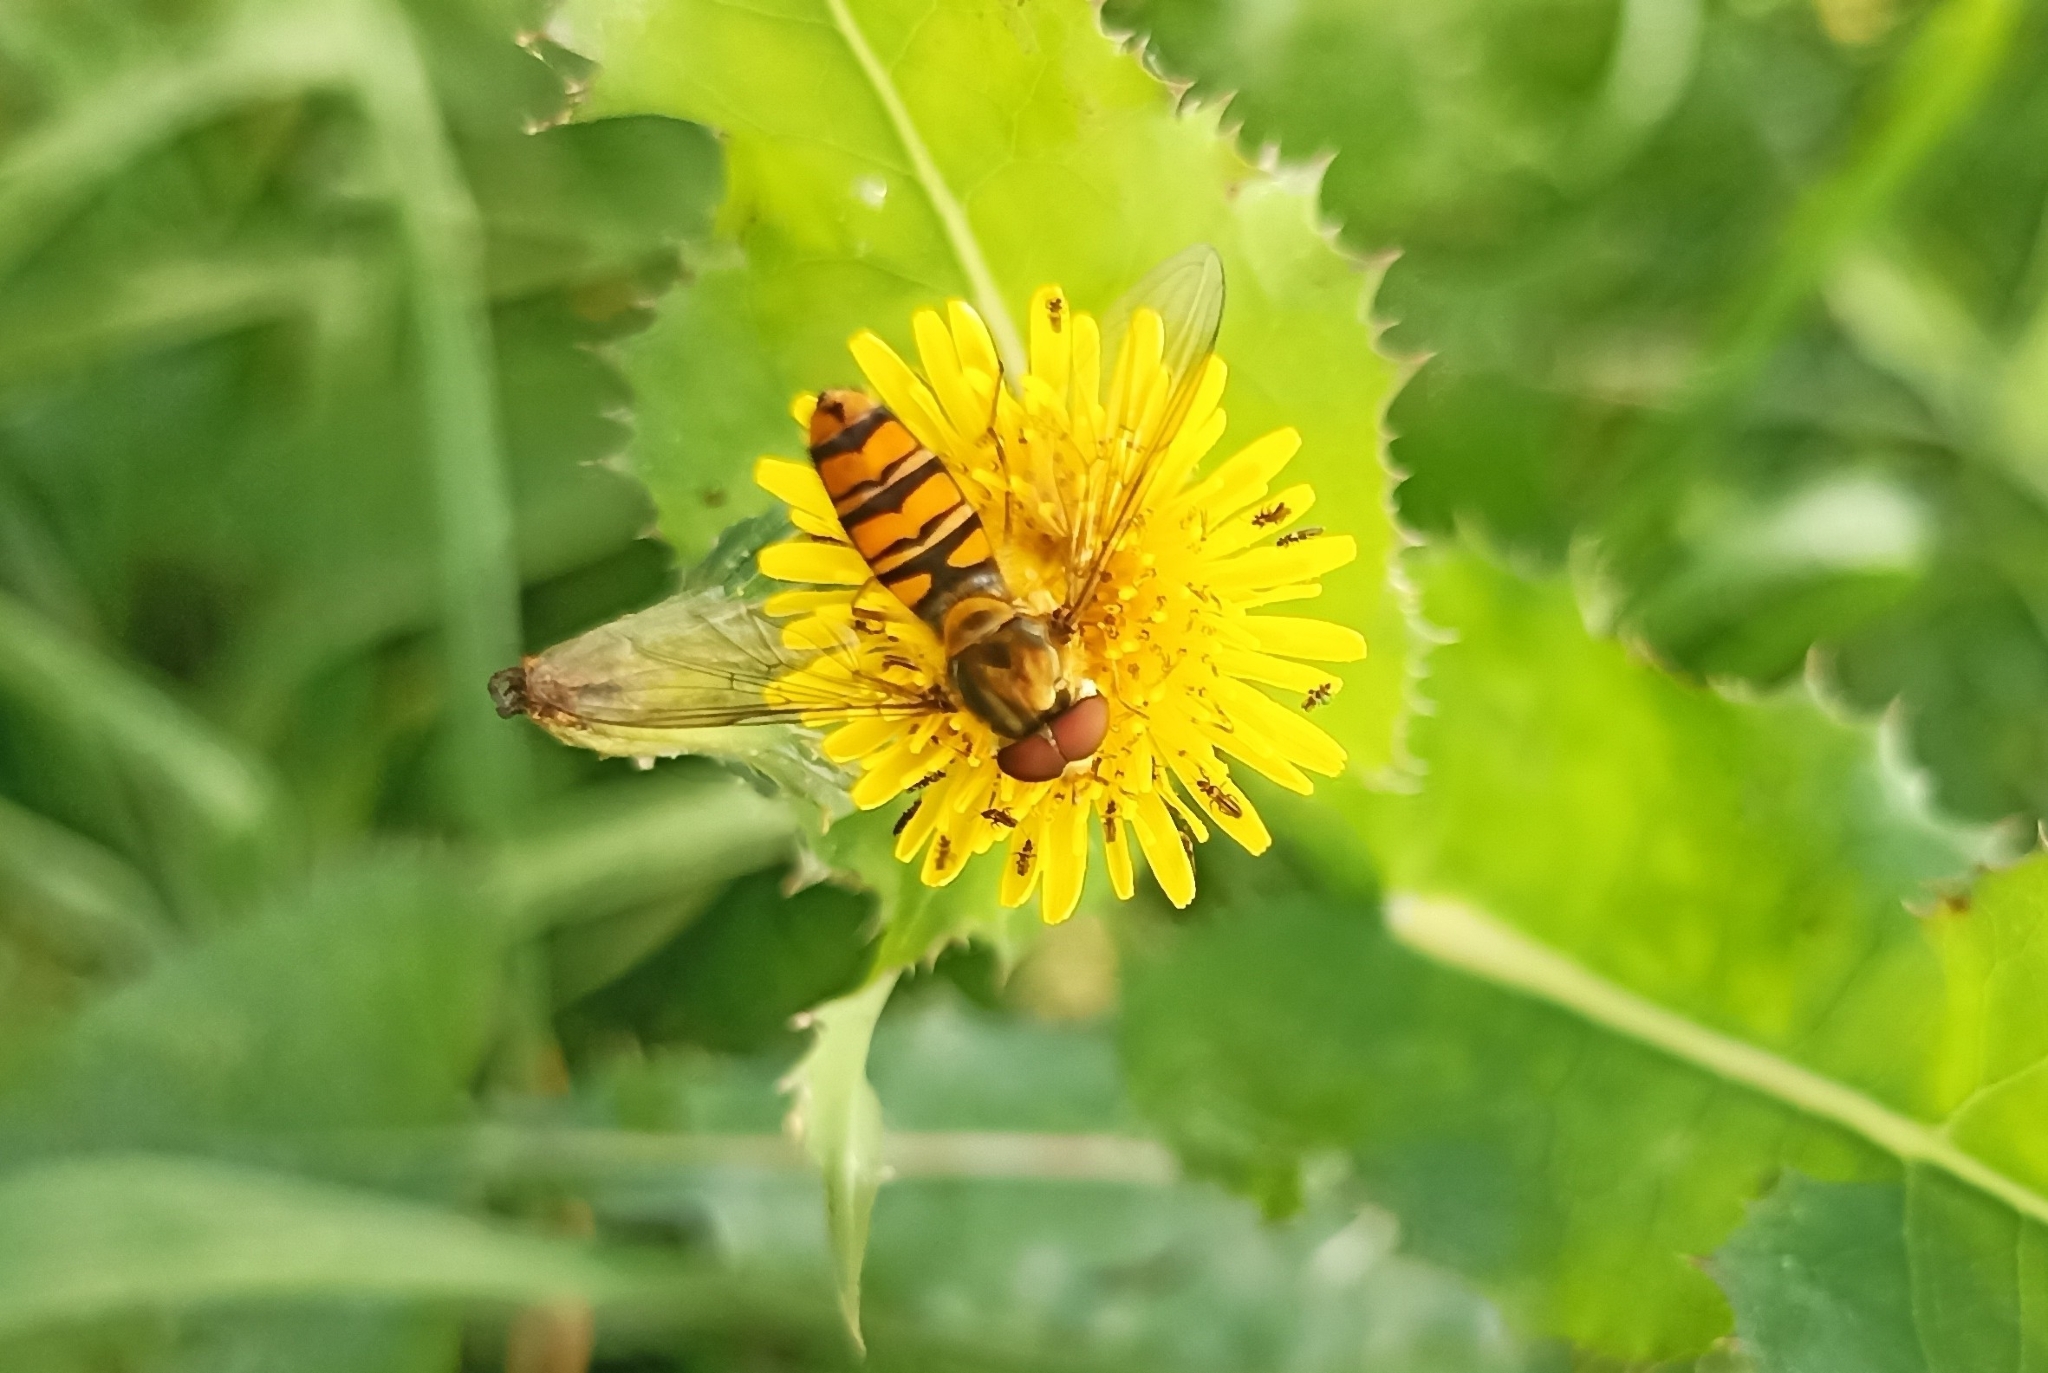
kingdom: Animalia
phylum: Arthropoda
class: Insecta
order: Diptera
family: Syrphidae
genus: Episyrphus
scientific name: Episyrphus balteatus
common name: Marmalade hoverfly
